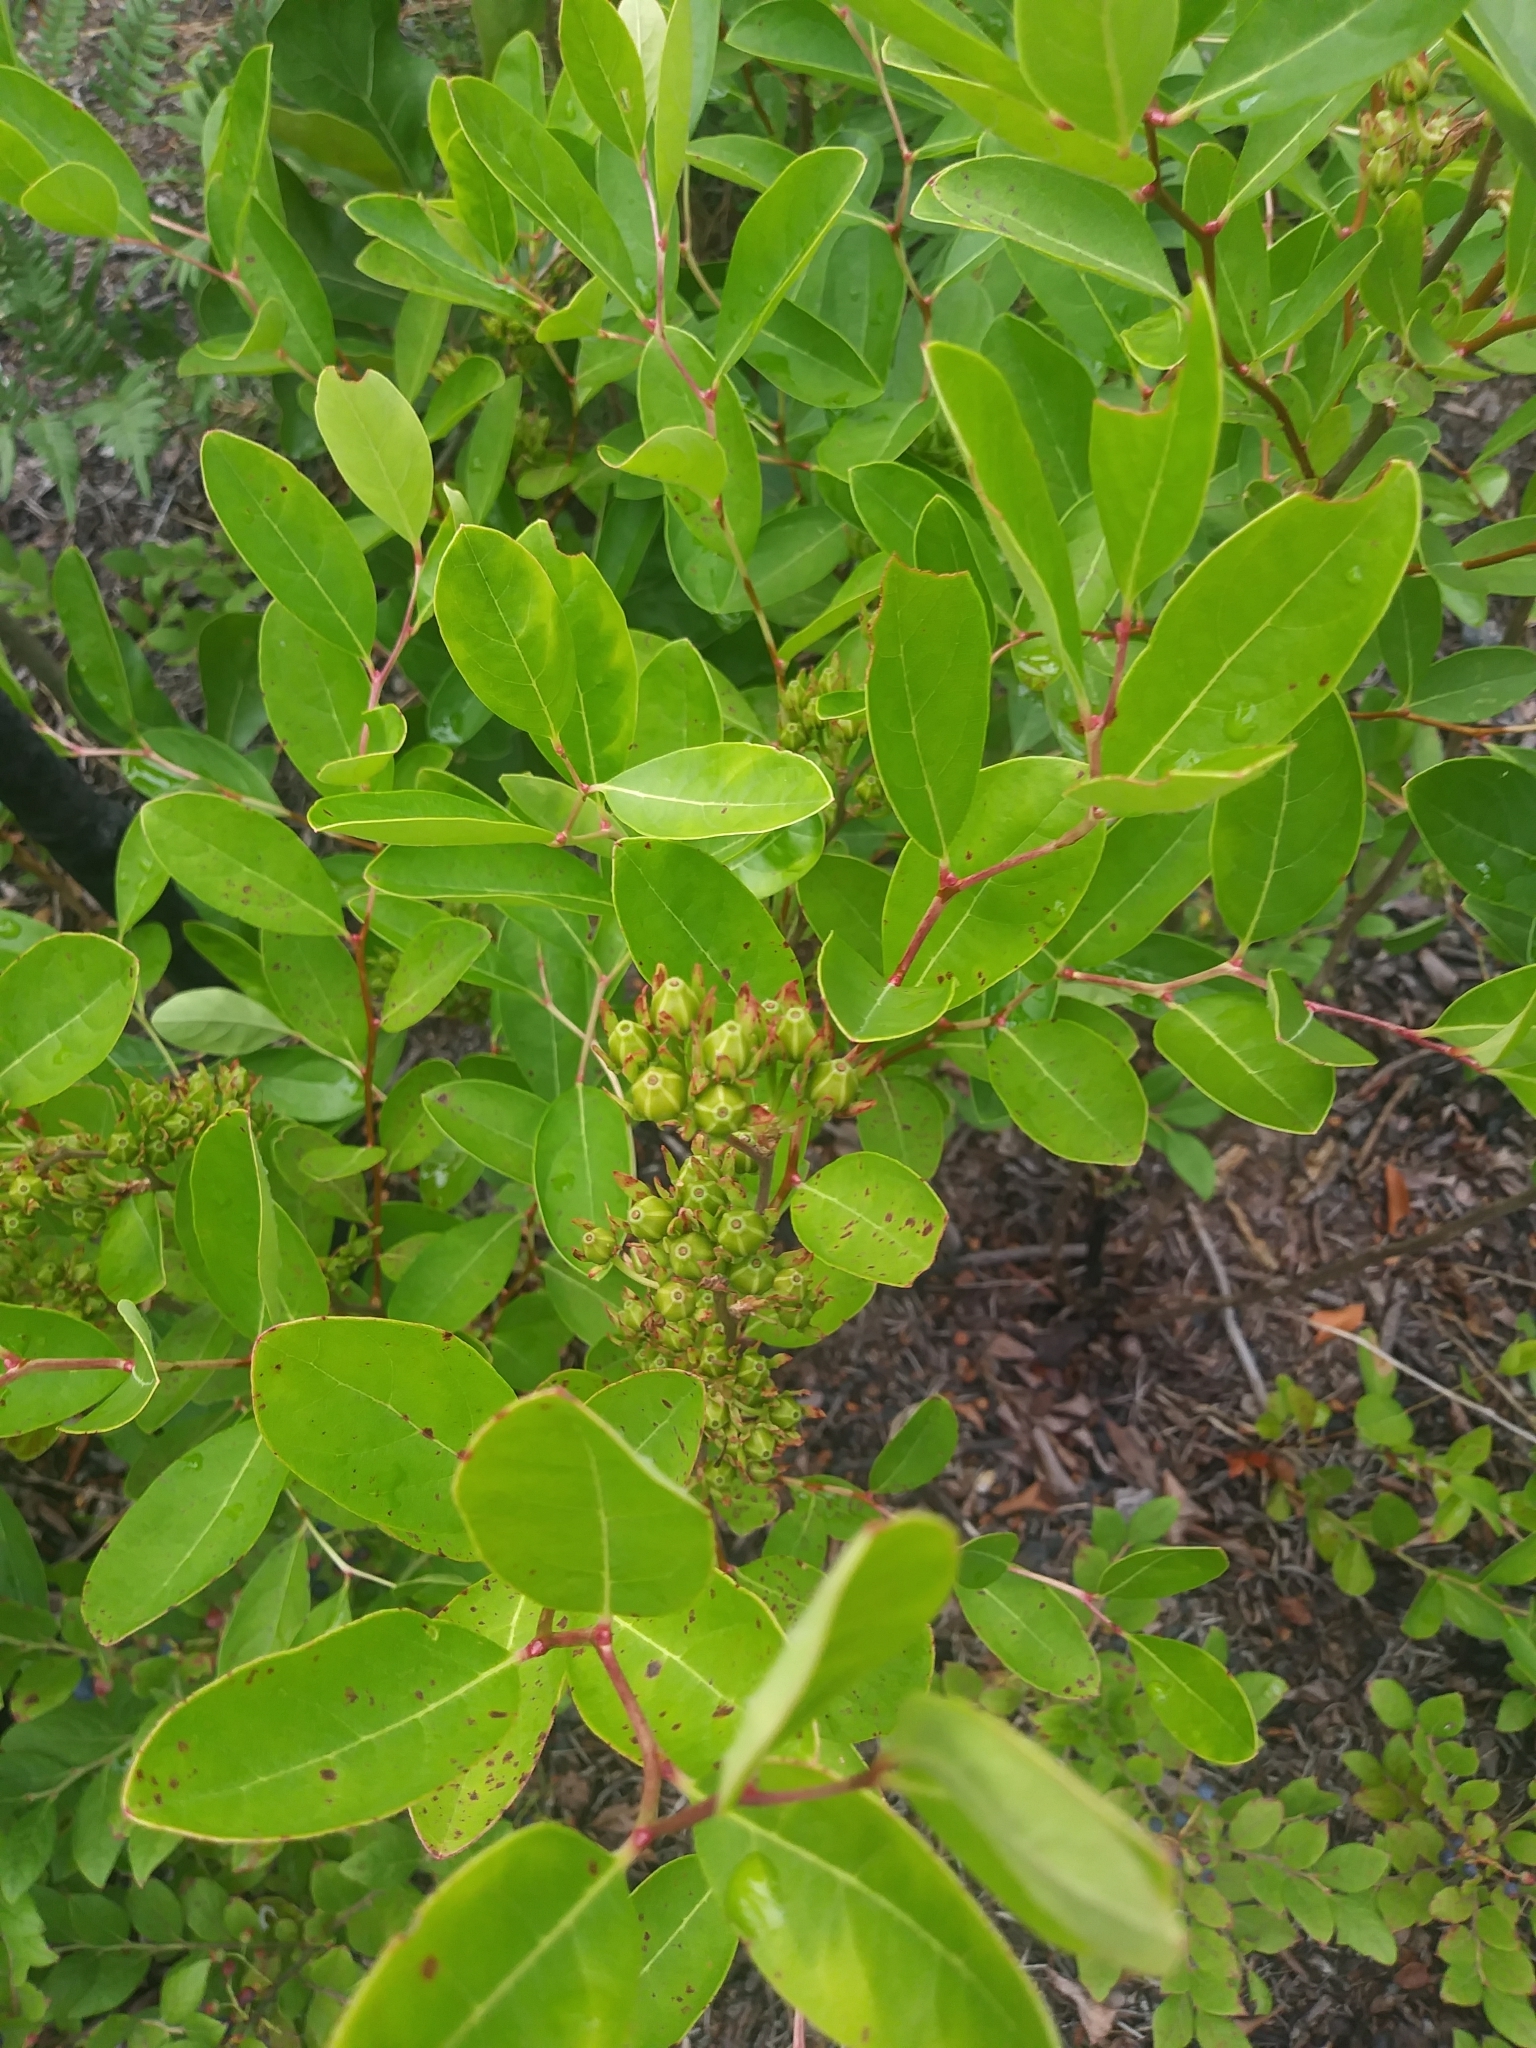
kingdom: Plantae
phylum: Tracheophyta
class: Magnoliopsida
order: Ericales
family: Ericaceae
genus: Lyonia
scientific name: Lyonia mariana
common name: Staggerbush
